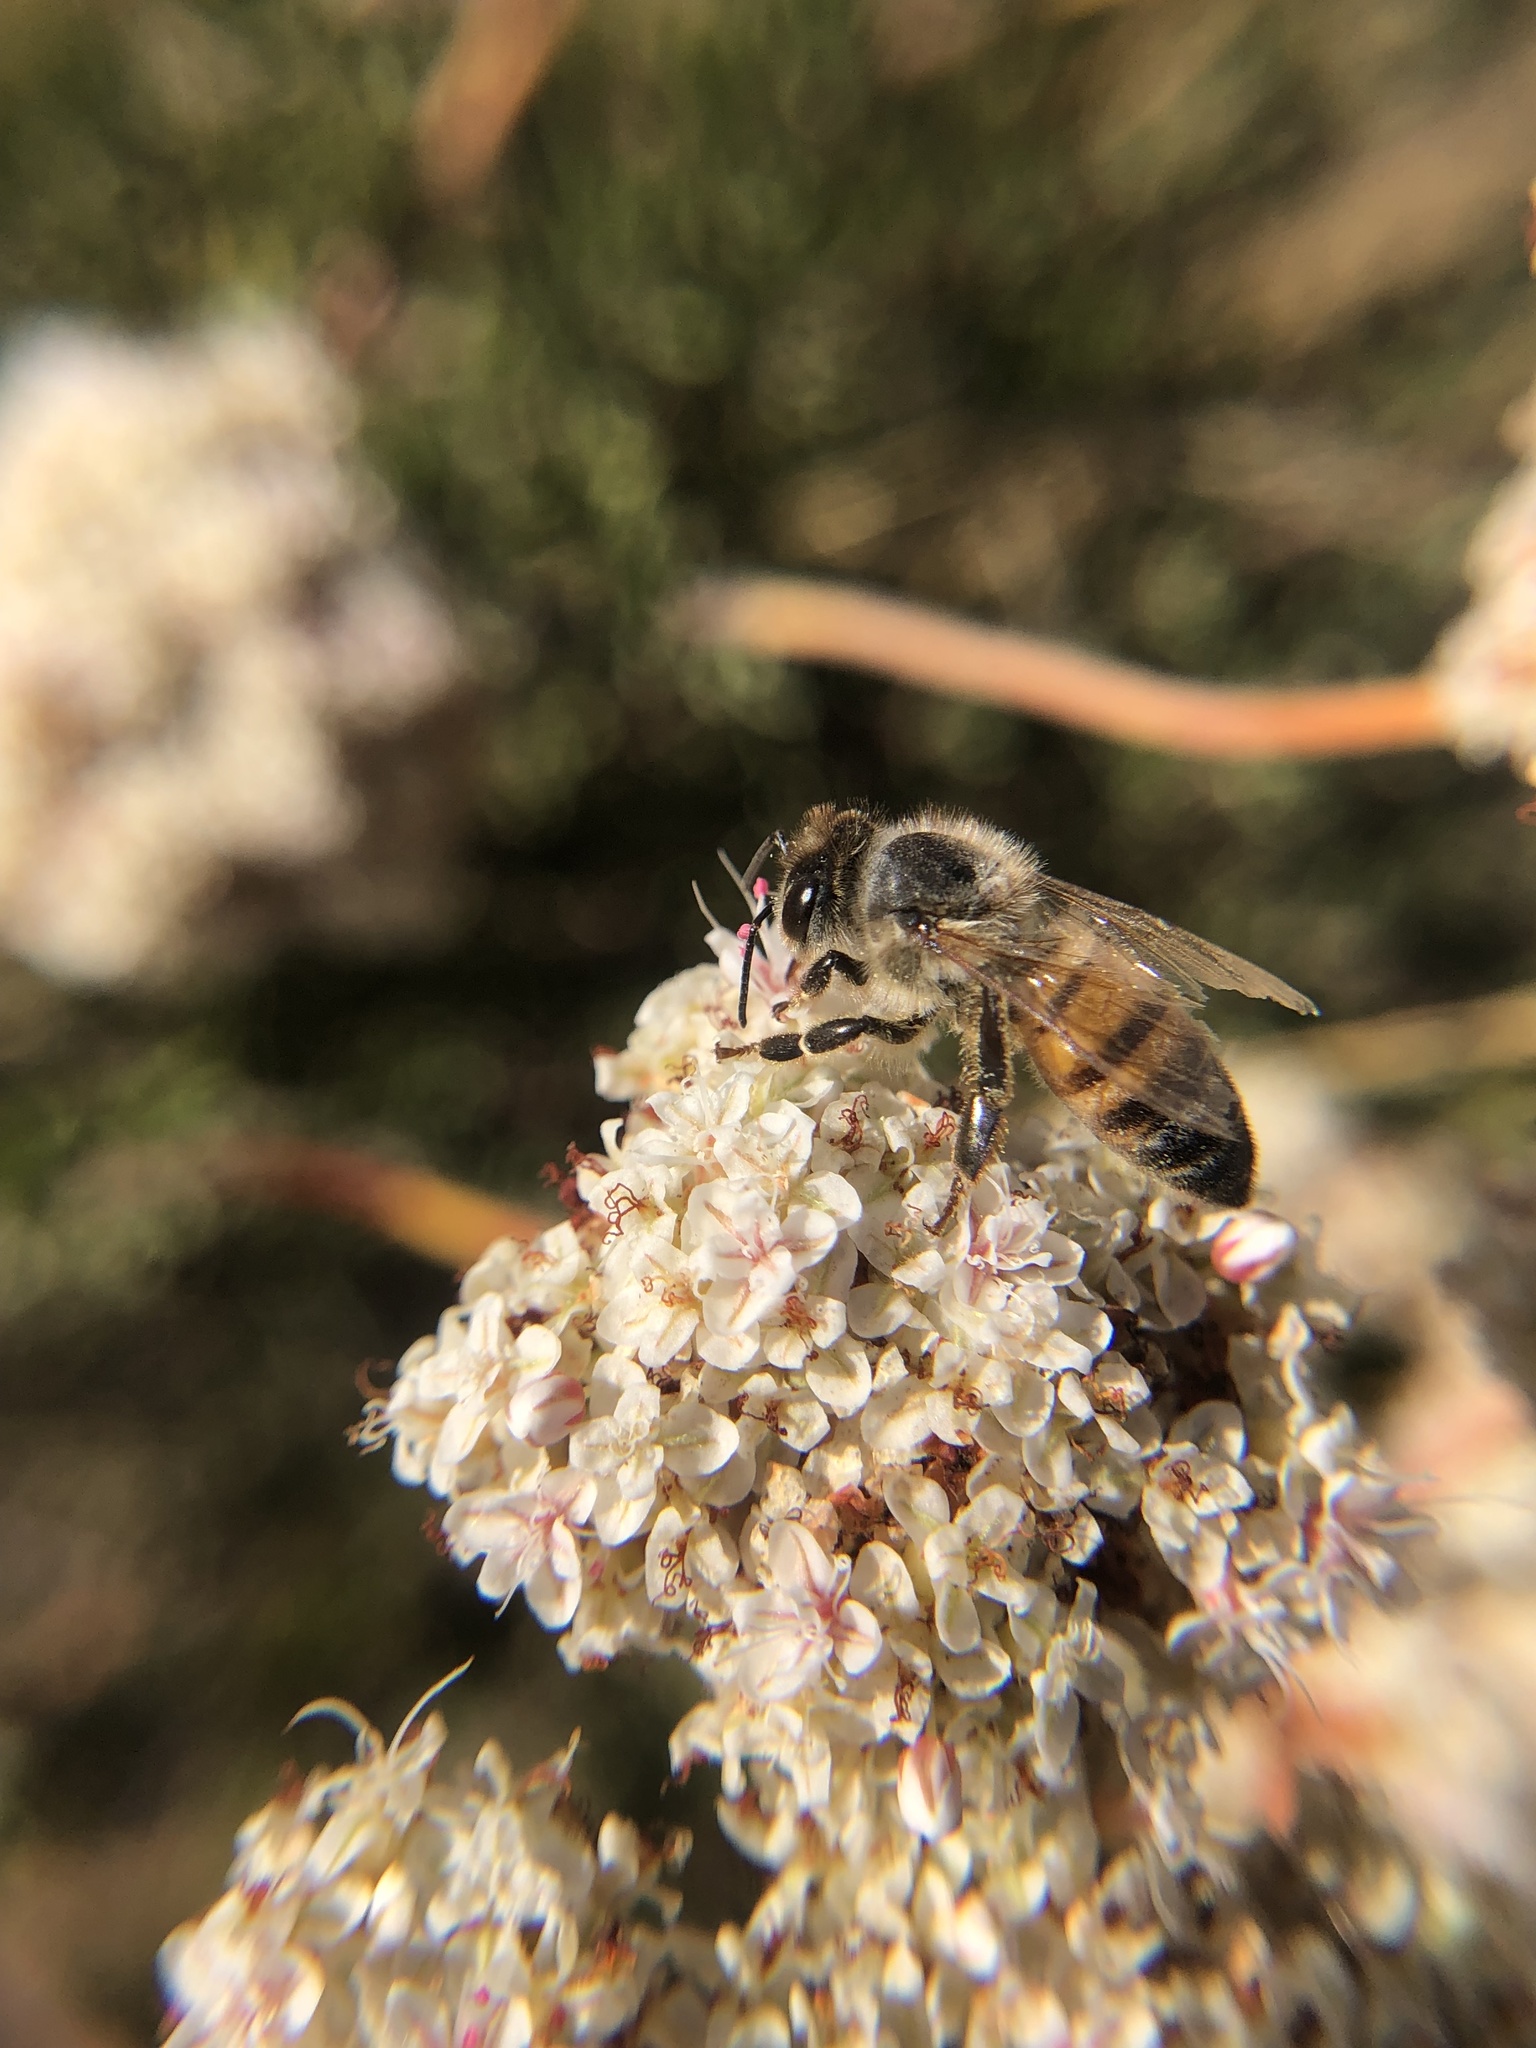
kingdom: Animalia
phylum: Arthropoda
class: Insecta
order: Hymenoptera
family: Apidae
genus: Apis
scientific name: Apis mellifera
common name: Honey bee
